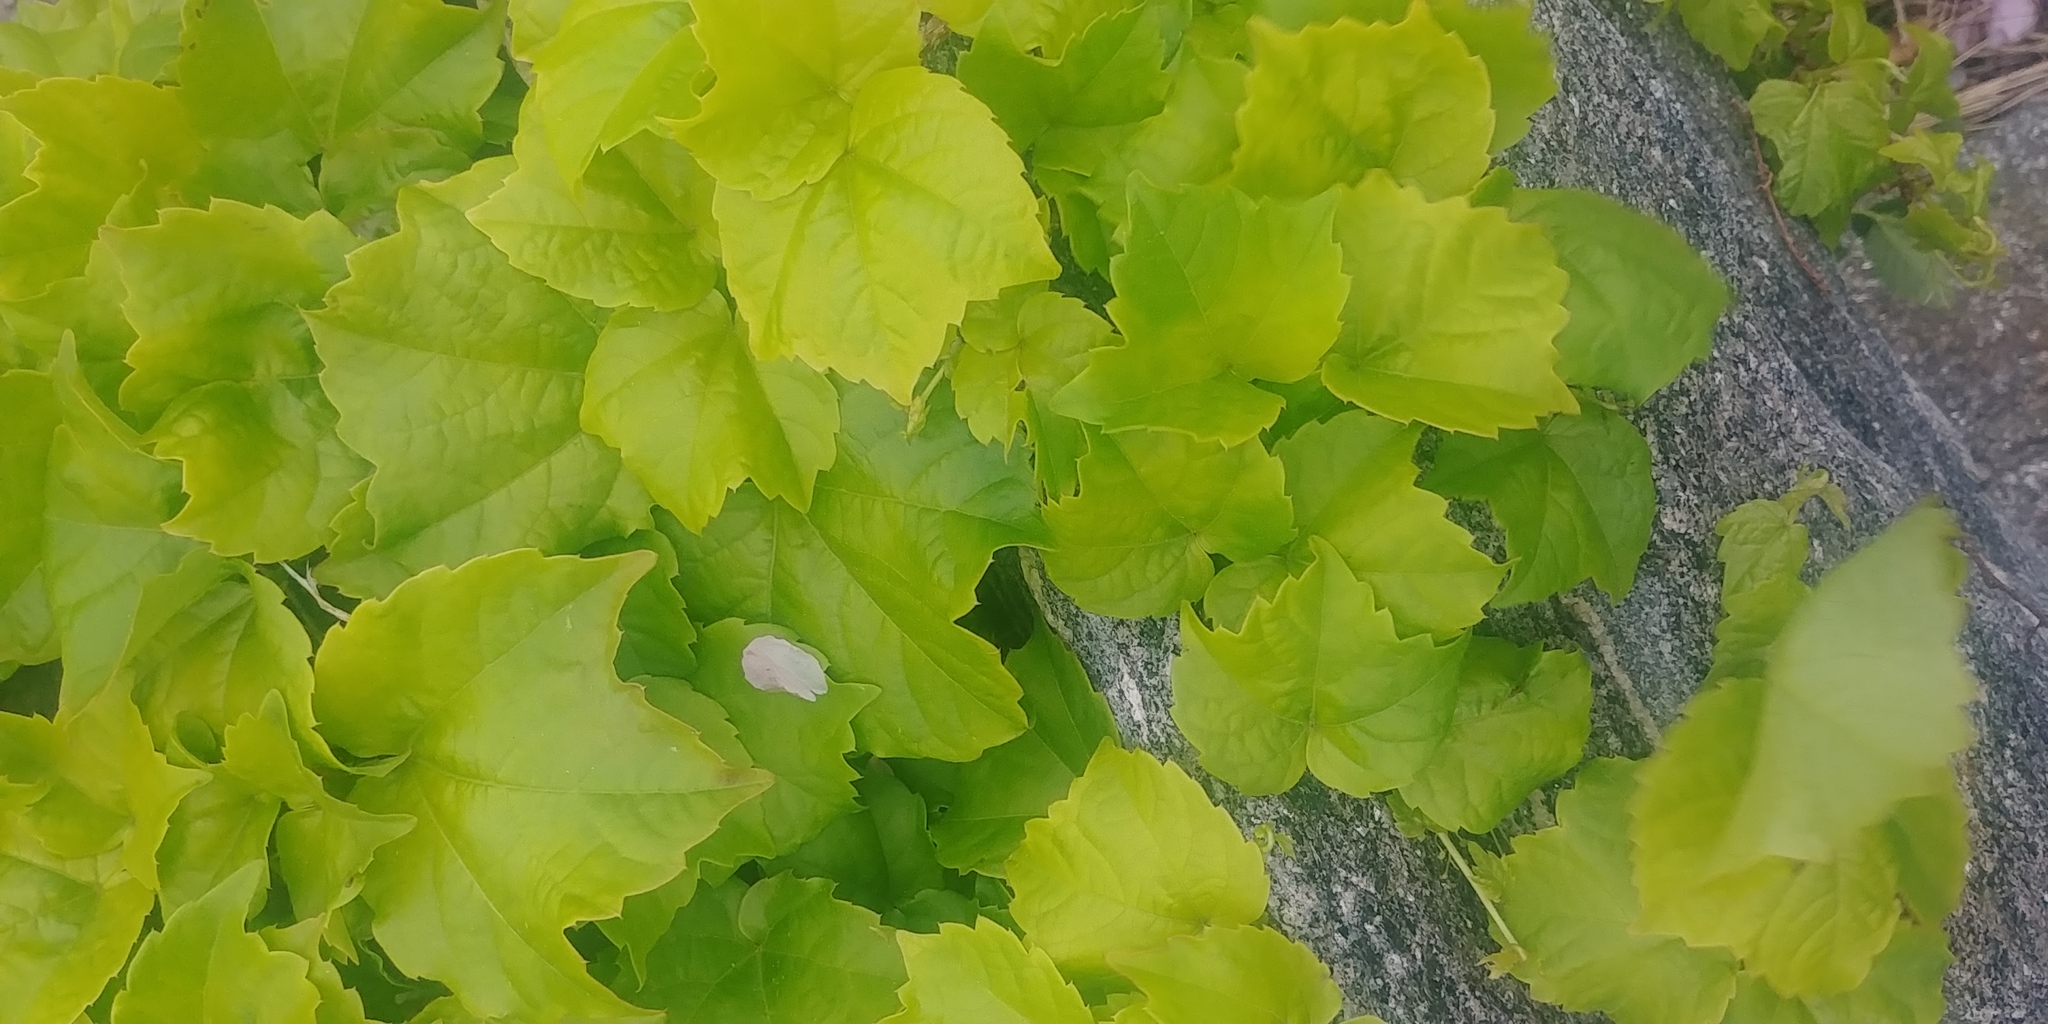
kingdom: Plantae
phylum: Tracheophyta
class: Magnoliopsida
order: Vitales
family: Vitaceae
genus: Parthenocissus
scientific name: Parthenocissus tricuspidata
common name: Boston ivy
